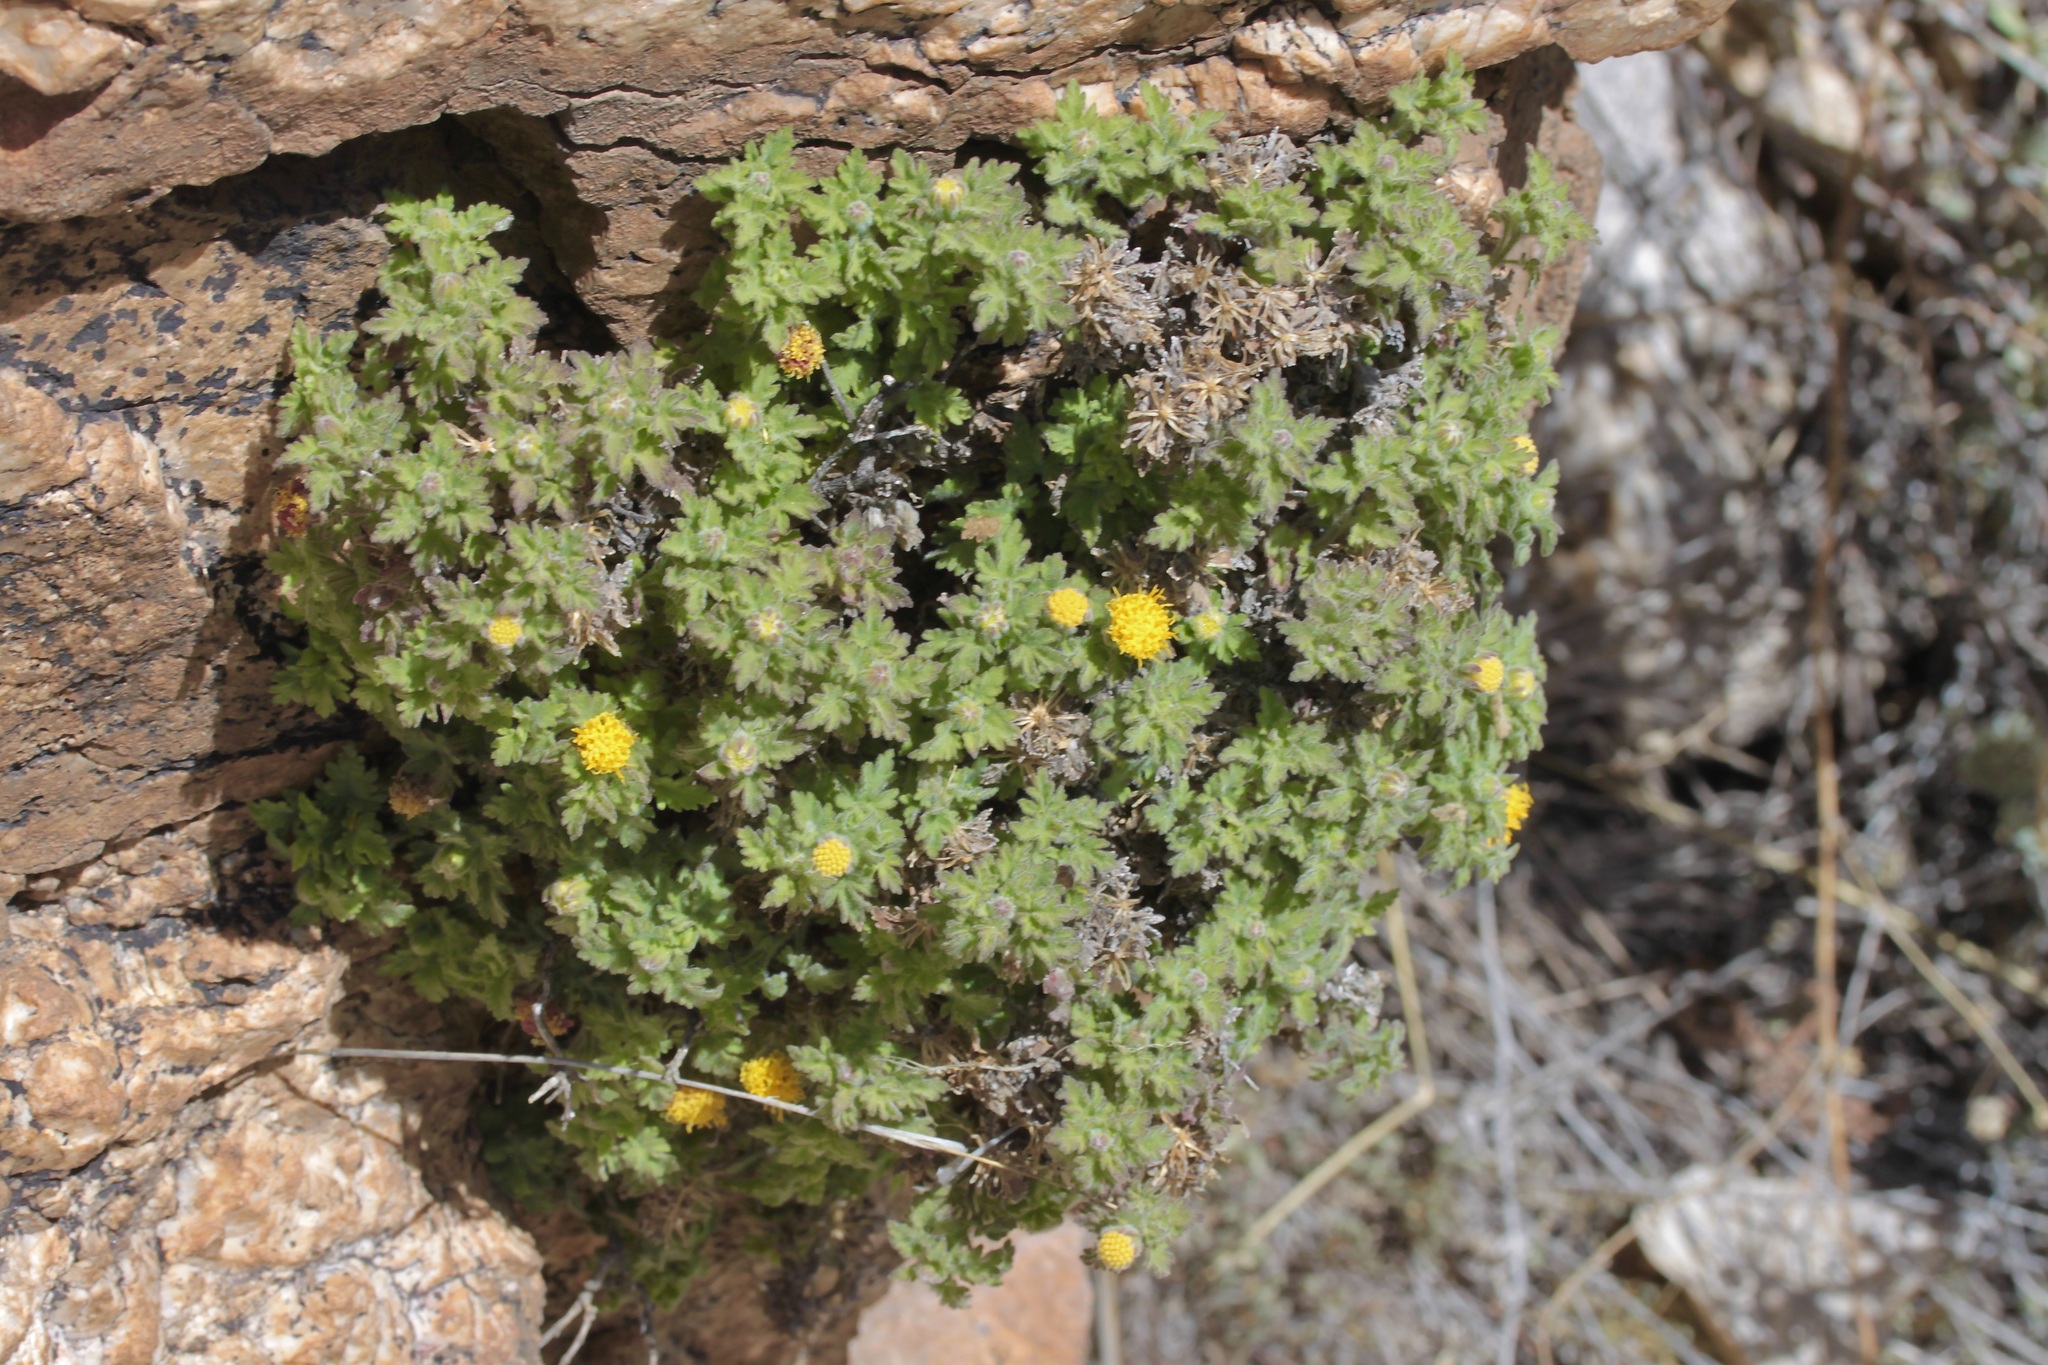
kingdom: Plantae
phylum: Tracheophyta
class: Magnoliopsida
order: Asterales
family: Asteraceae
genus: Laphamia
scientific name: Laphamia lemmonii
